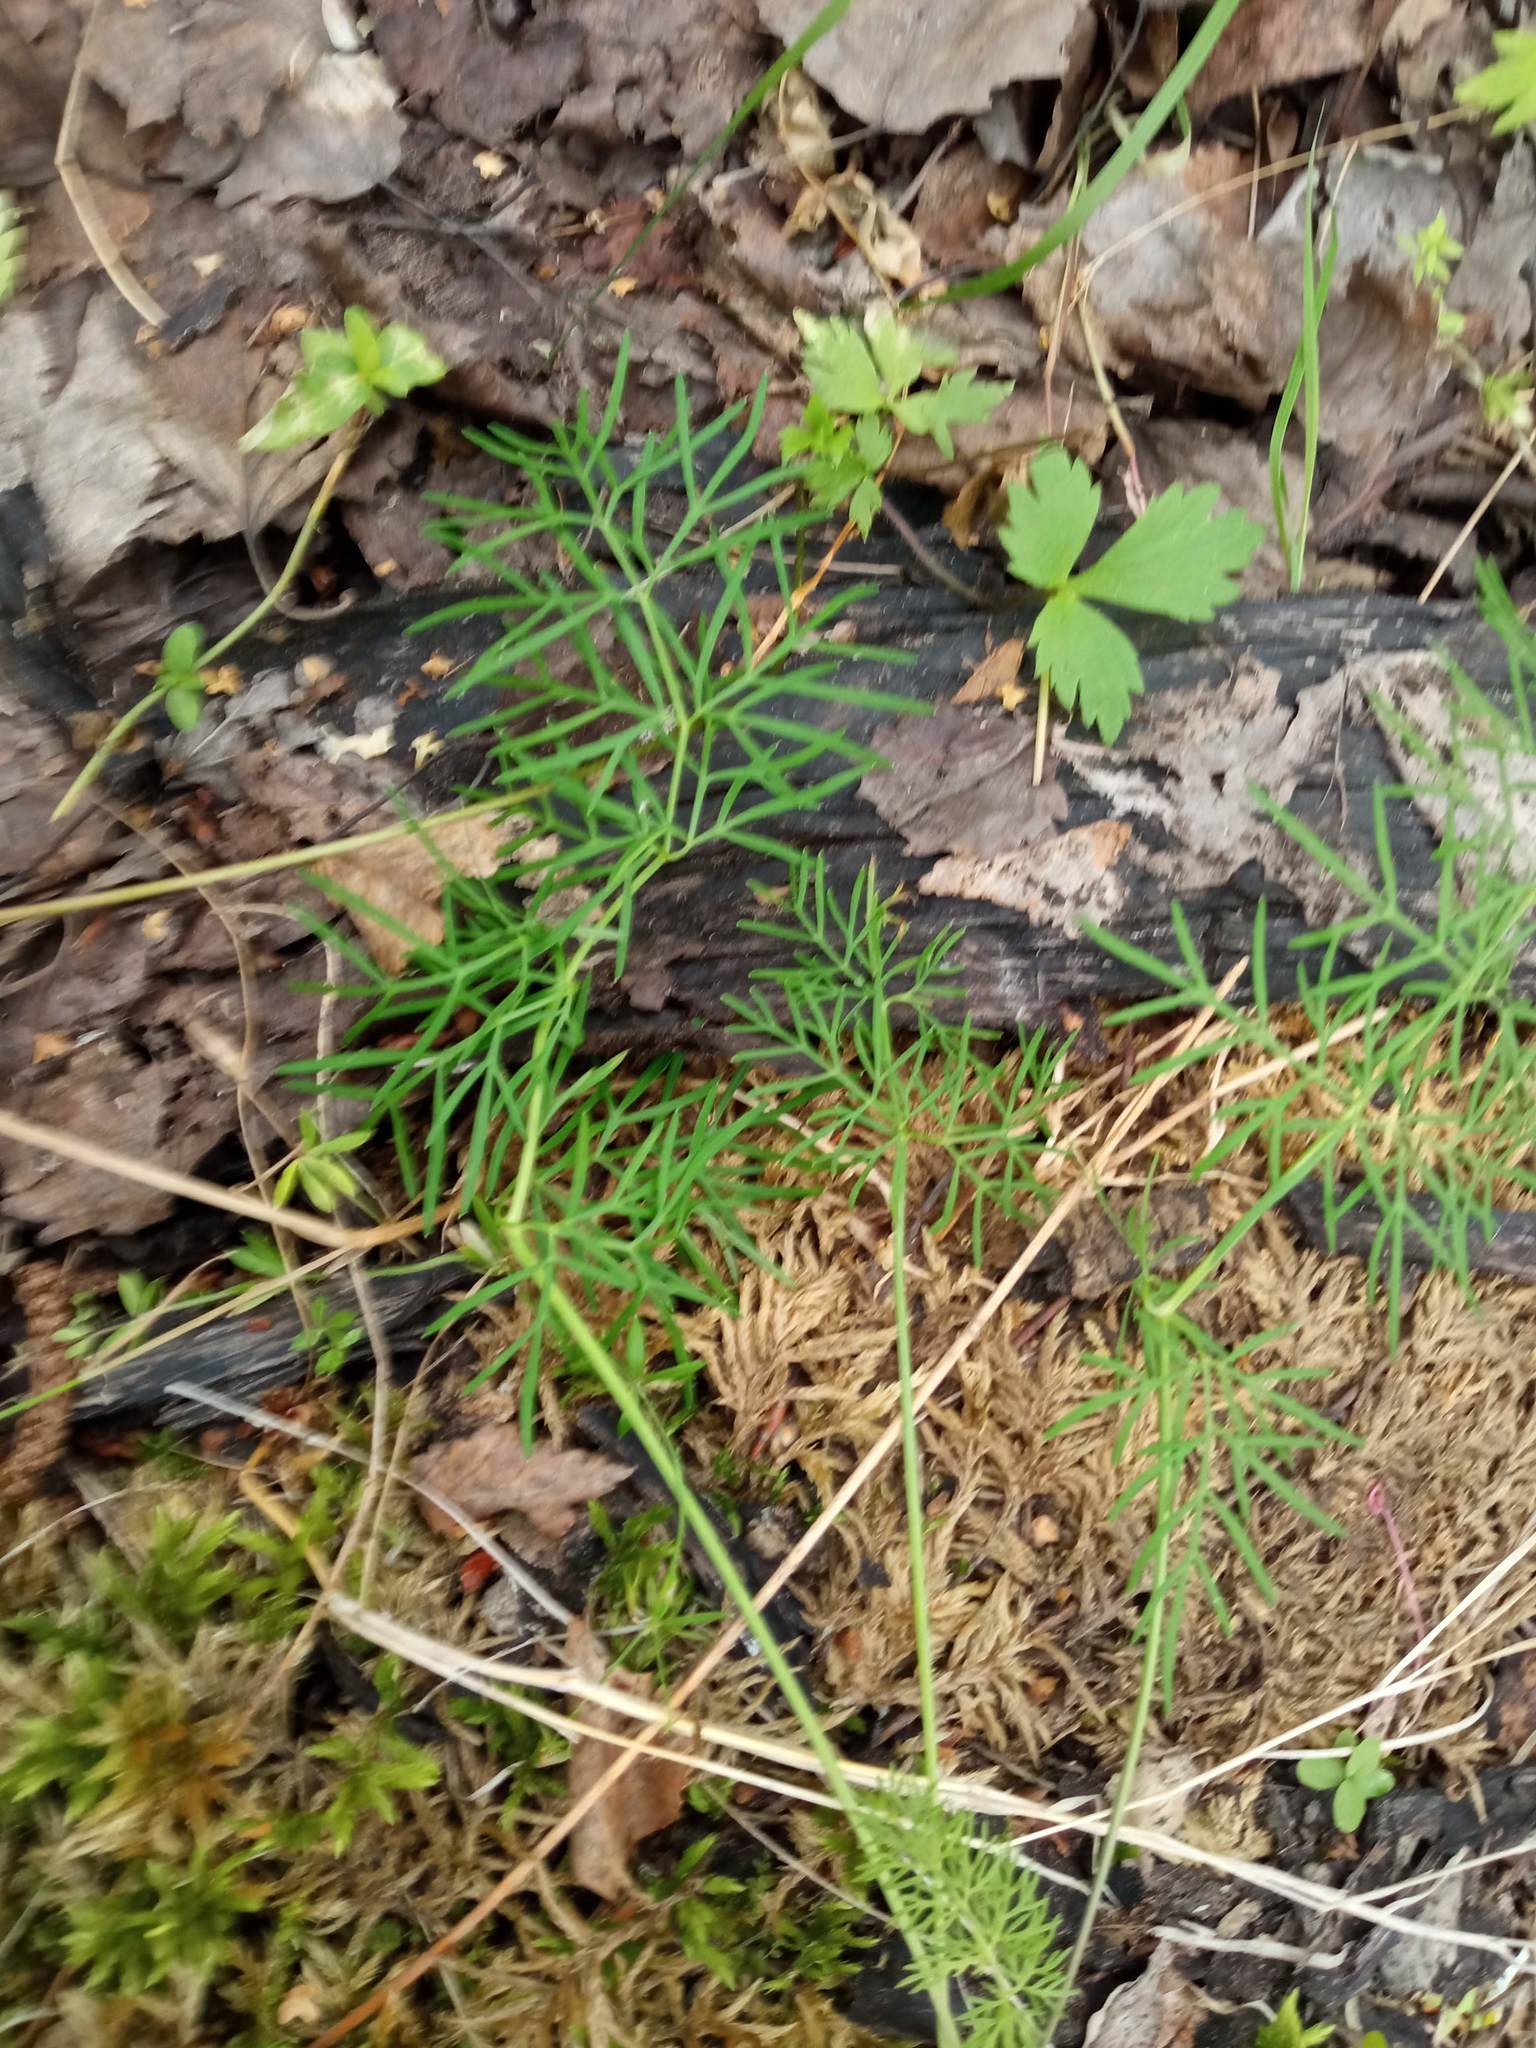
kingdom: Plantae
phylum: Tracheophyta
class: Magnoliopsida
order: Apiales
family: Apiaceae
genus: Kadenia
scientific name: Kadenia dubia
